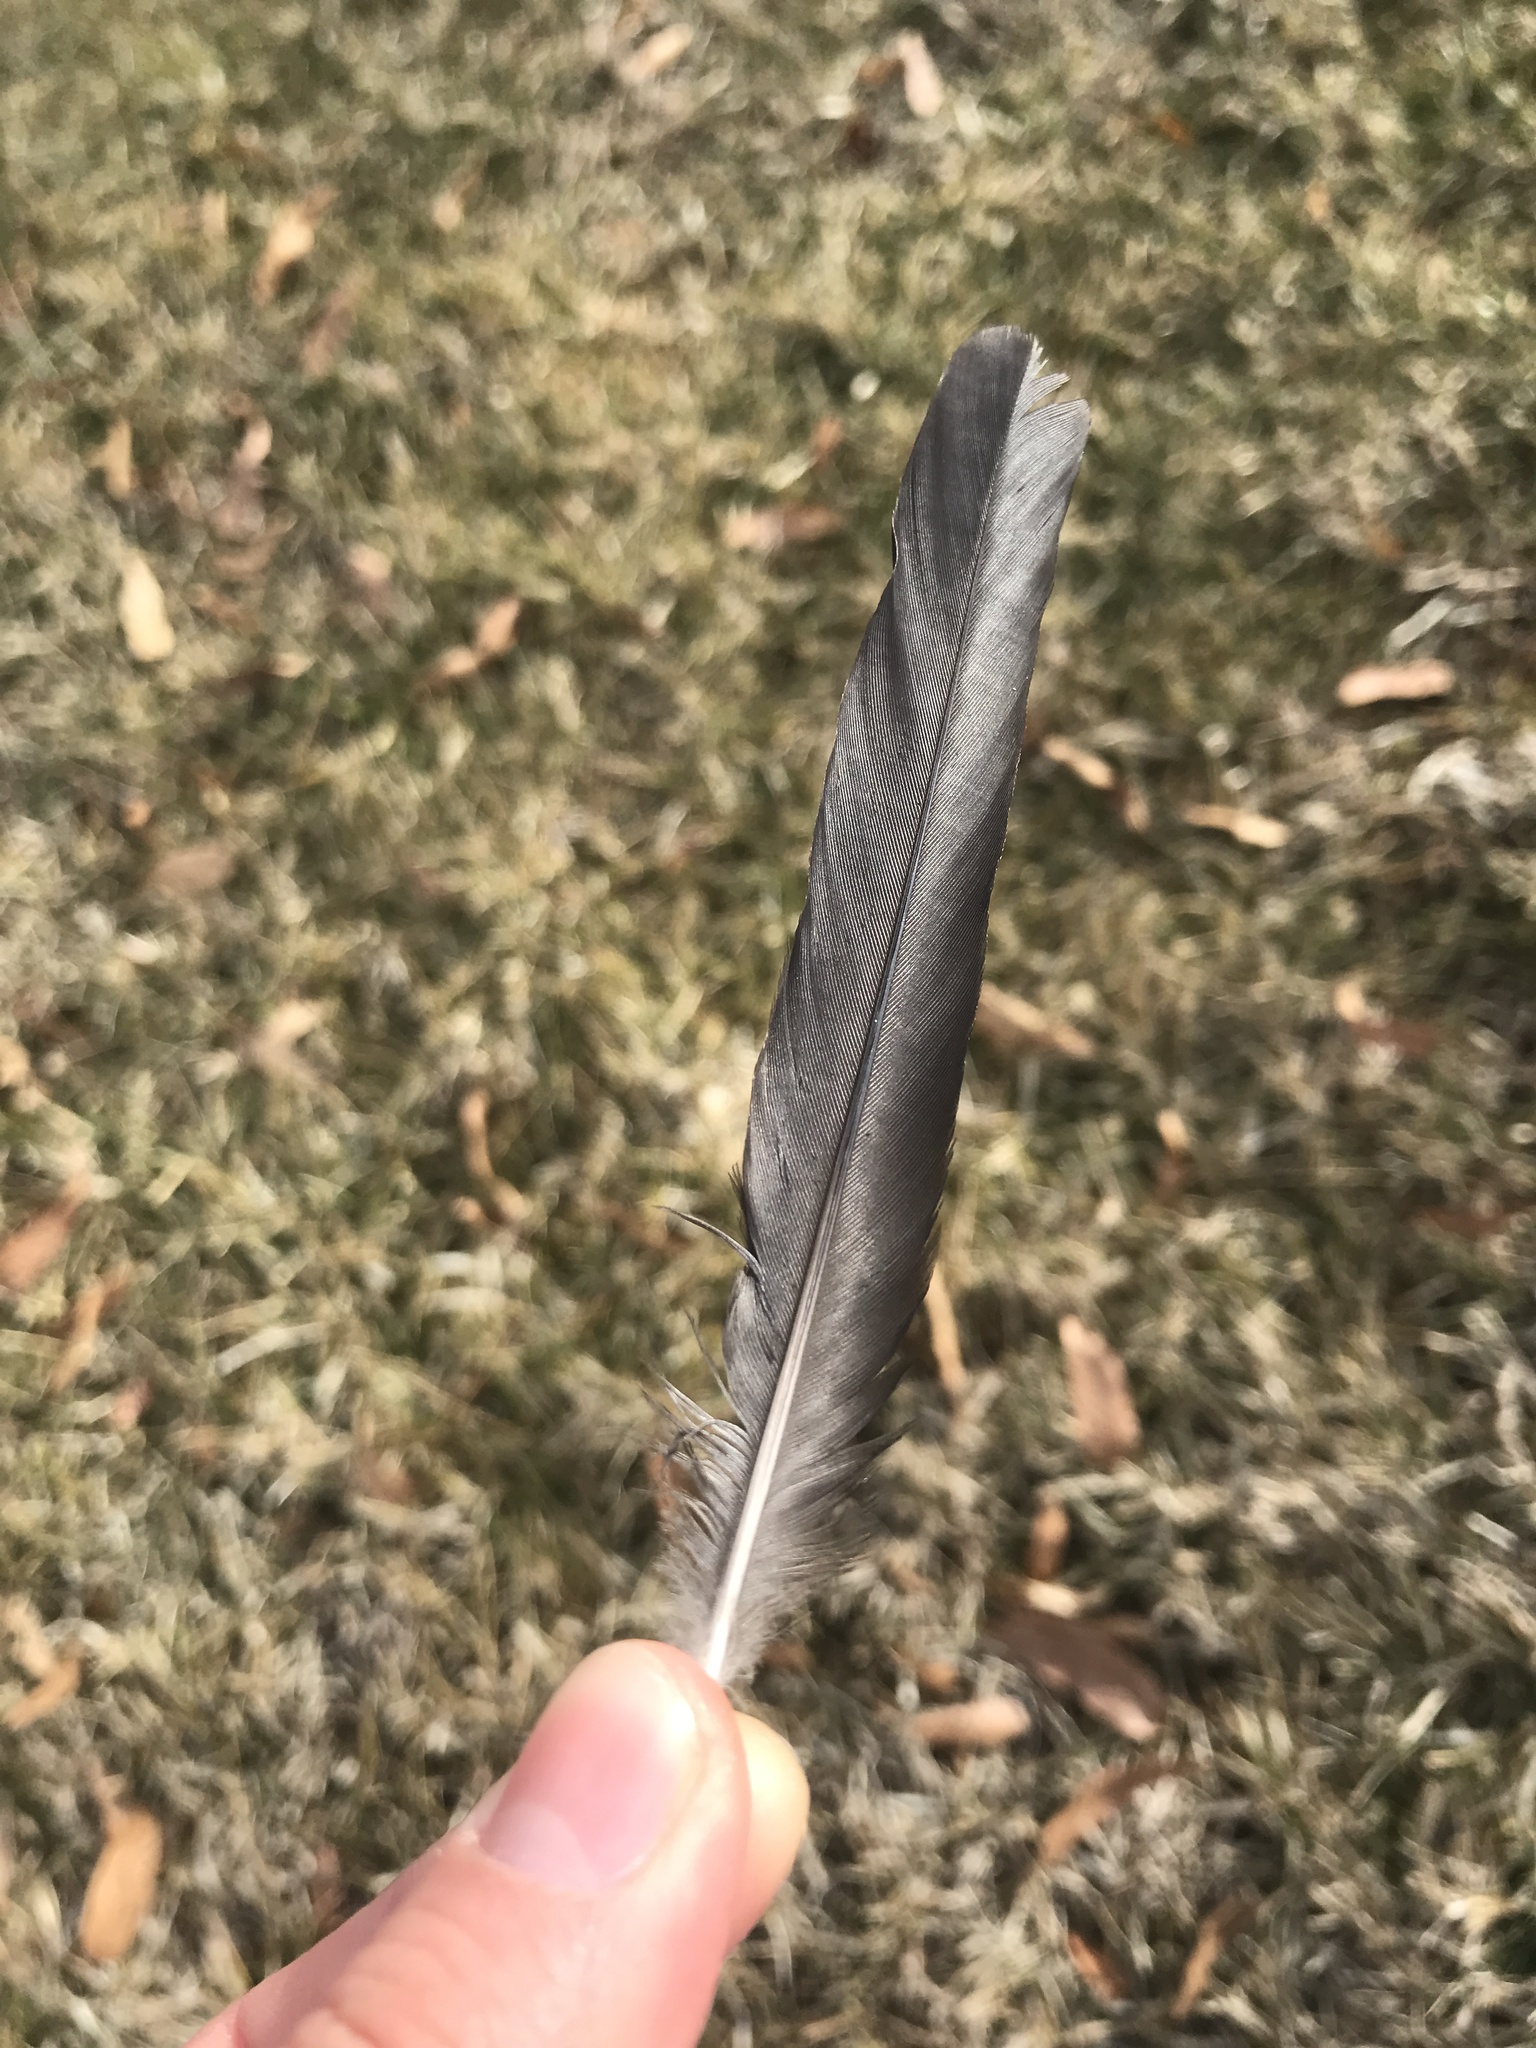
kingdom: Animalia
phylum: Chordata
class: Aves
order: Passeriformes
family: Icteridae
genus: Quiscalus
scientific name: Quiscalus quiscula
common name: Common grackle
